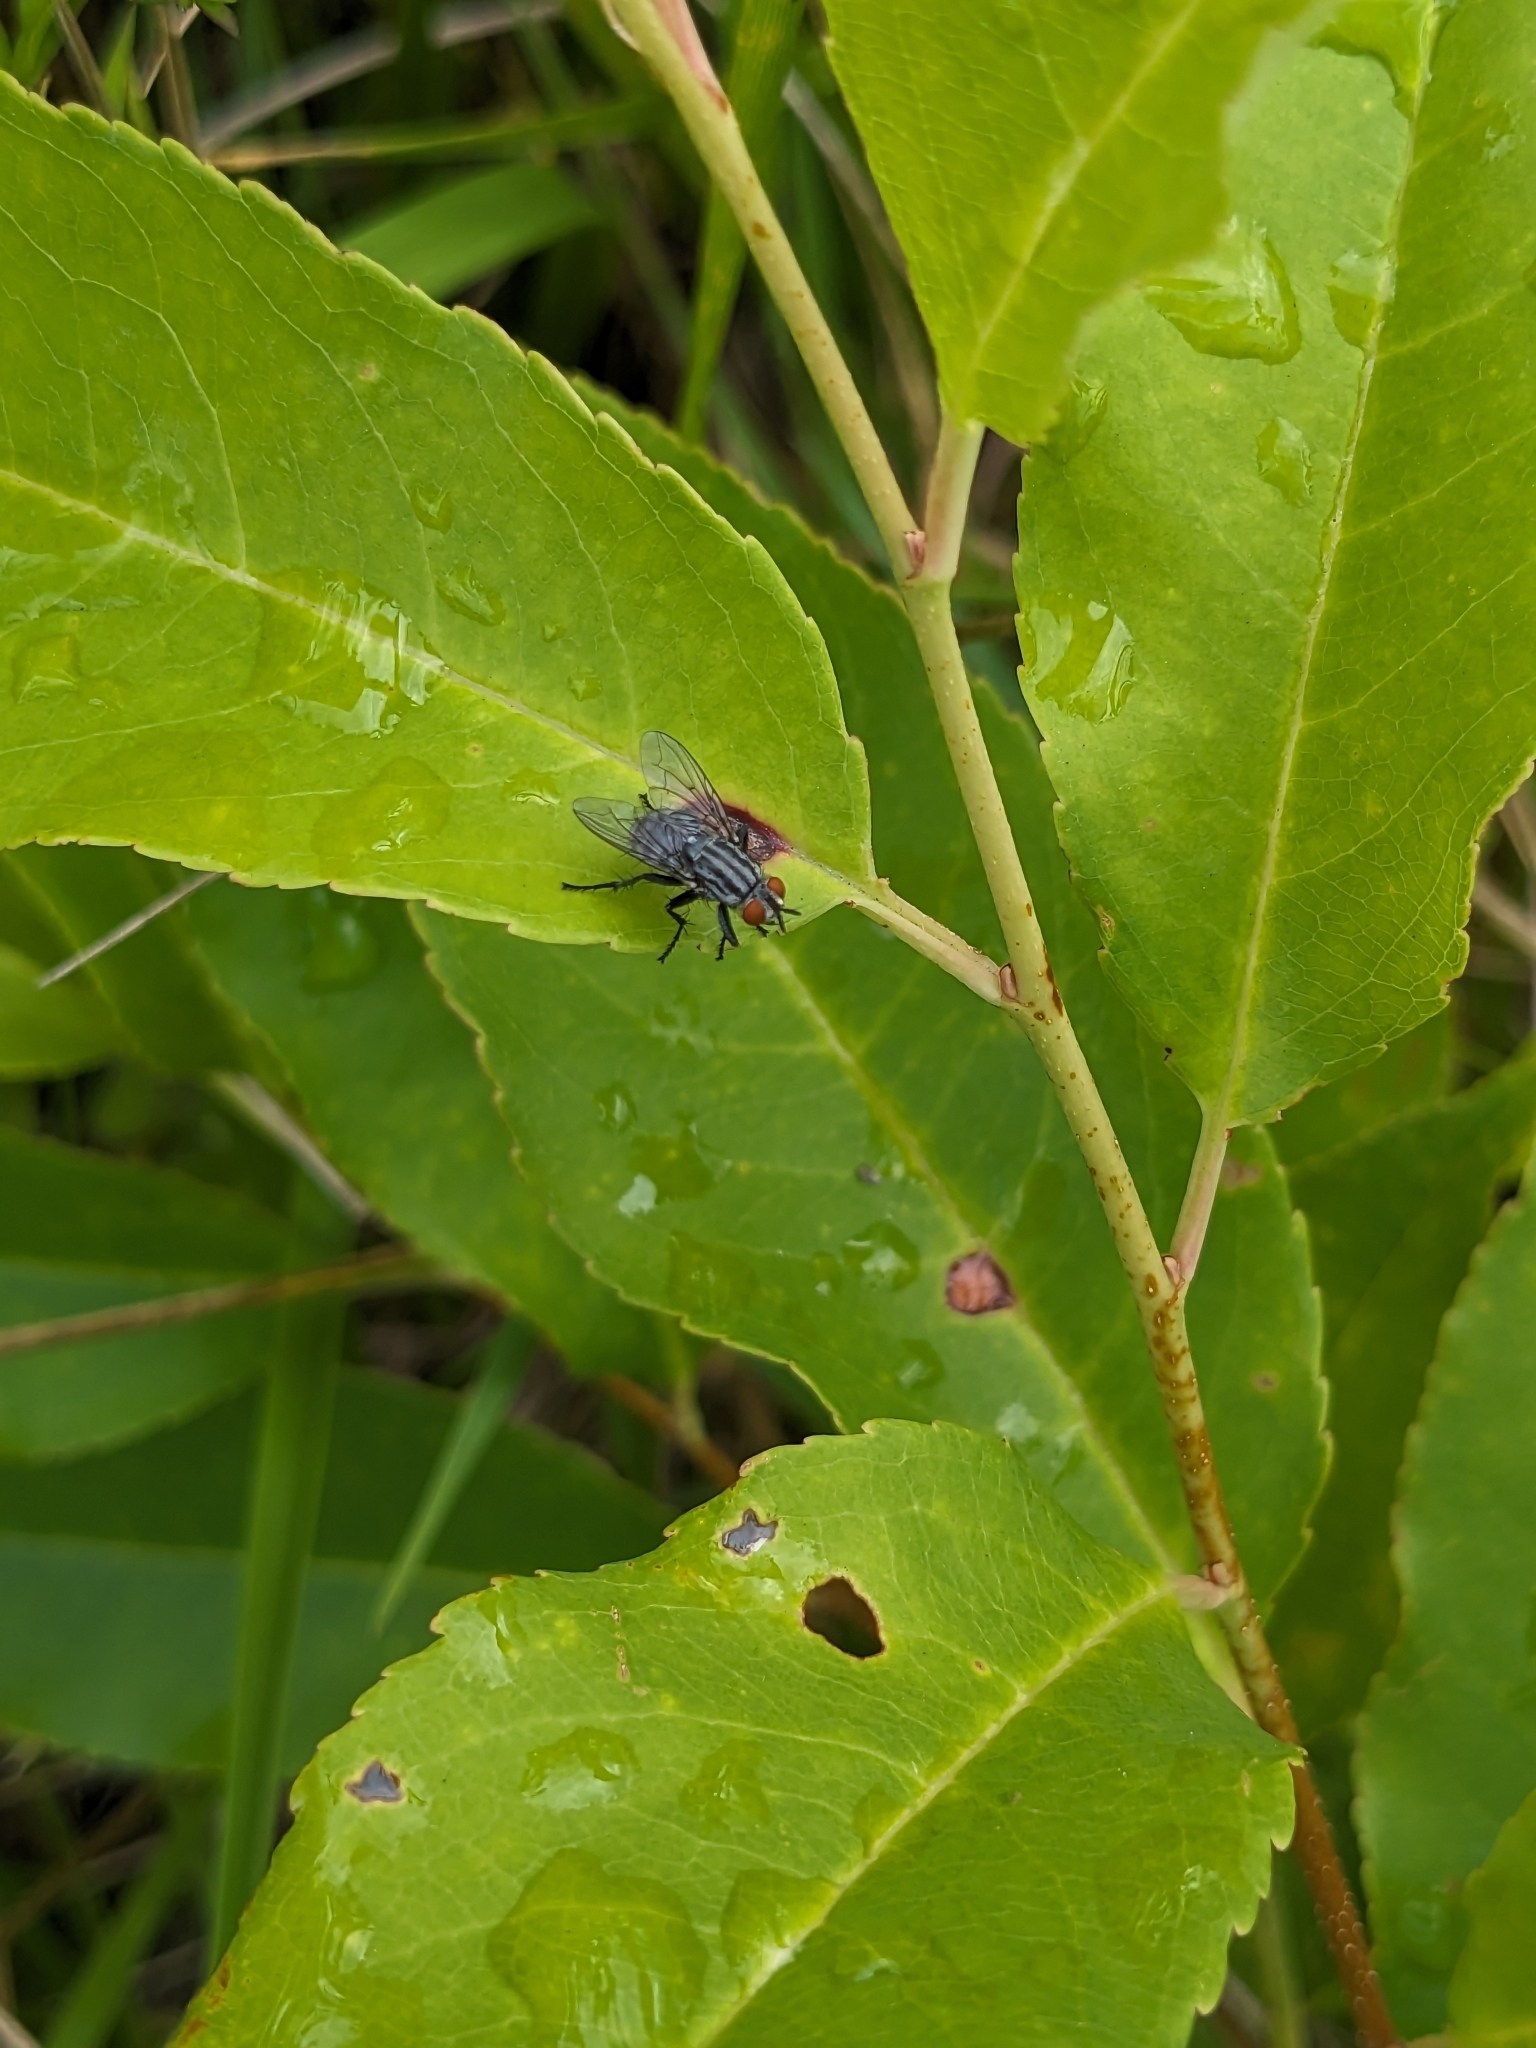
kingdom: Plantae
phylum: Tracheophyta
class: Magnoliopsida
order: Rosales
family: Rosaceae
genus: Prunus
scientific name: Prunus serotina
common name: Black cherry
